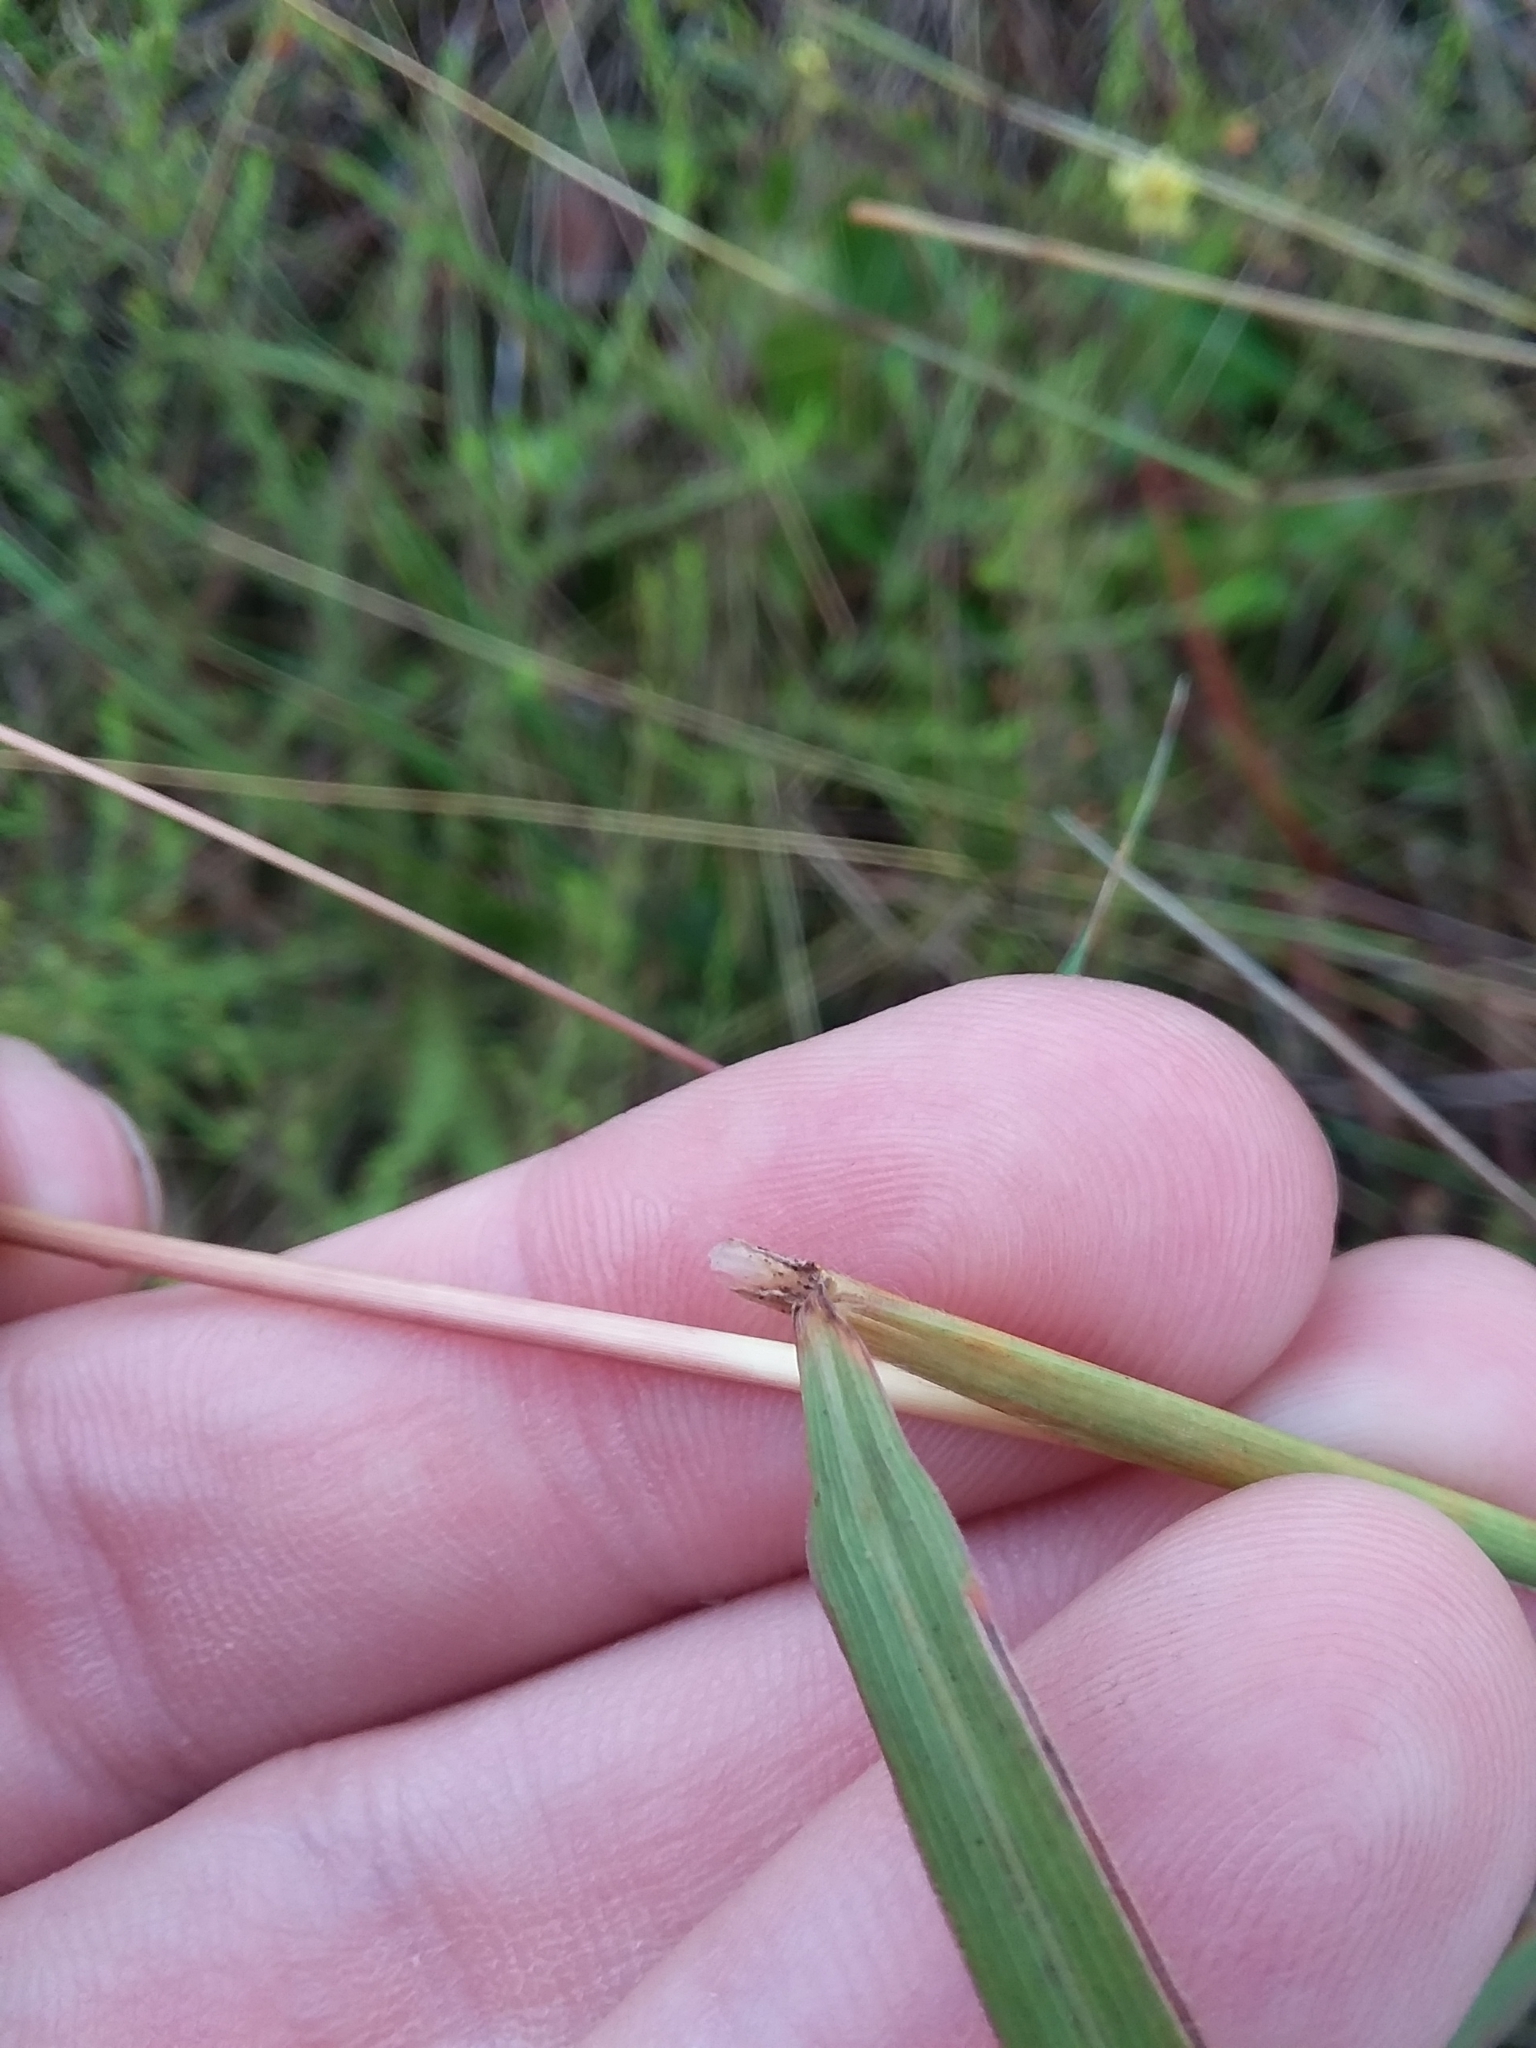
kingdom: Plantae
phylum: Tracheophyta
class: Liliopsida
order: Poales
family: Poaceae
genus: Sorghastrum
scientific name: Sorghastrum secundum
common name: Lopsided indian grass
